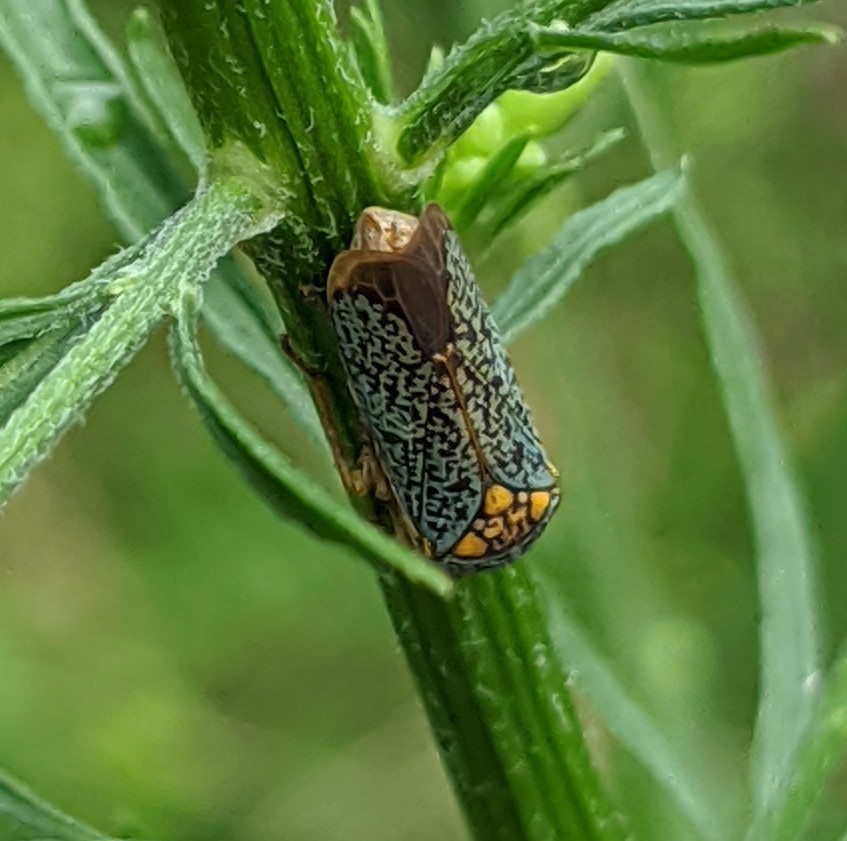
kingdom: Animalia
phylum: Arthropoda
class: Insecta
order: Hemiptera
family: Cicadellidae
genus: Oncometopia
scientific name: Oncometopia orbona
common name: Broad-headed sharpshooter
